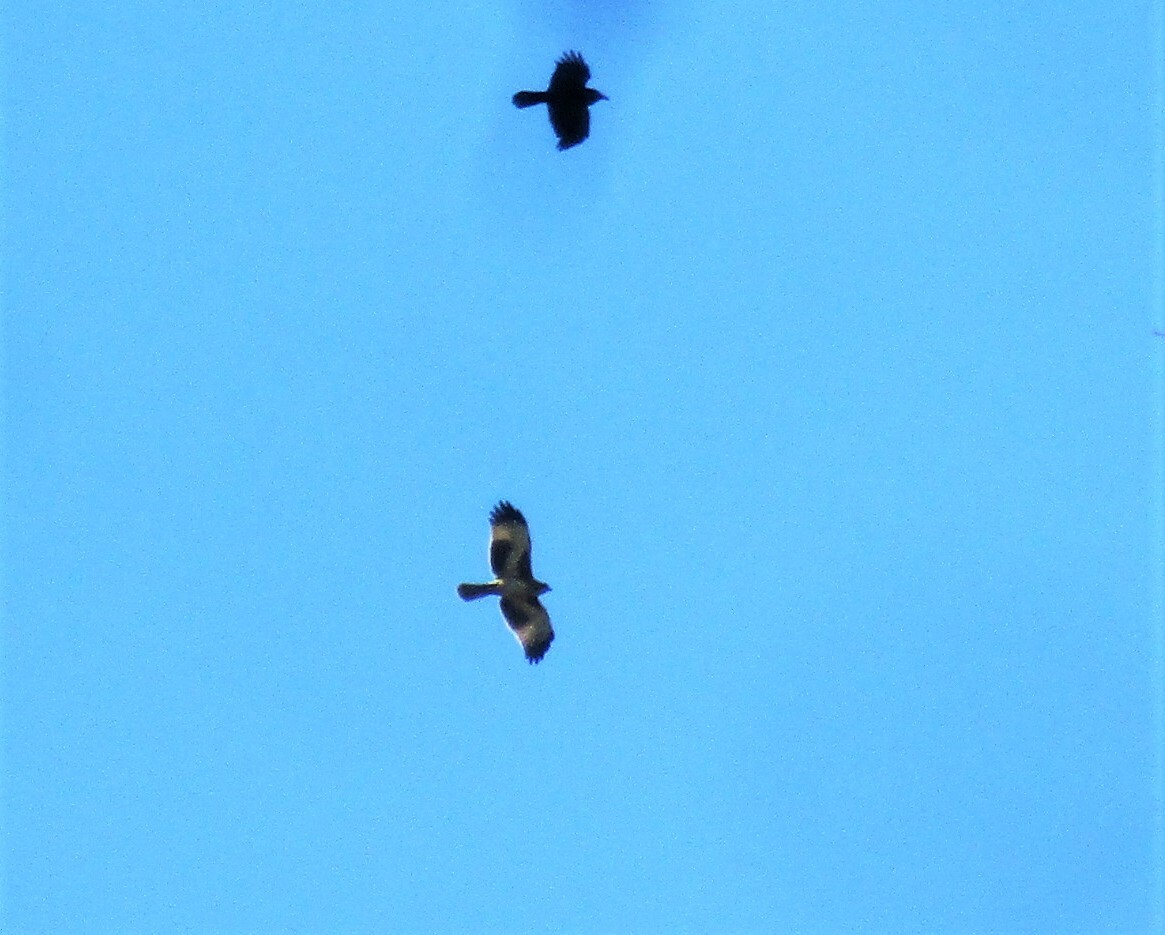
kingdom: Animalia
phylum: Chordata
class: Aves
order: Accipitriformes
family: Accipitridae
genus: Hieraaetus
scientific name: Hieraaetus morphnoides
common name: Little eagle
